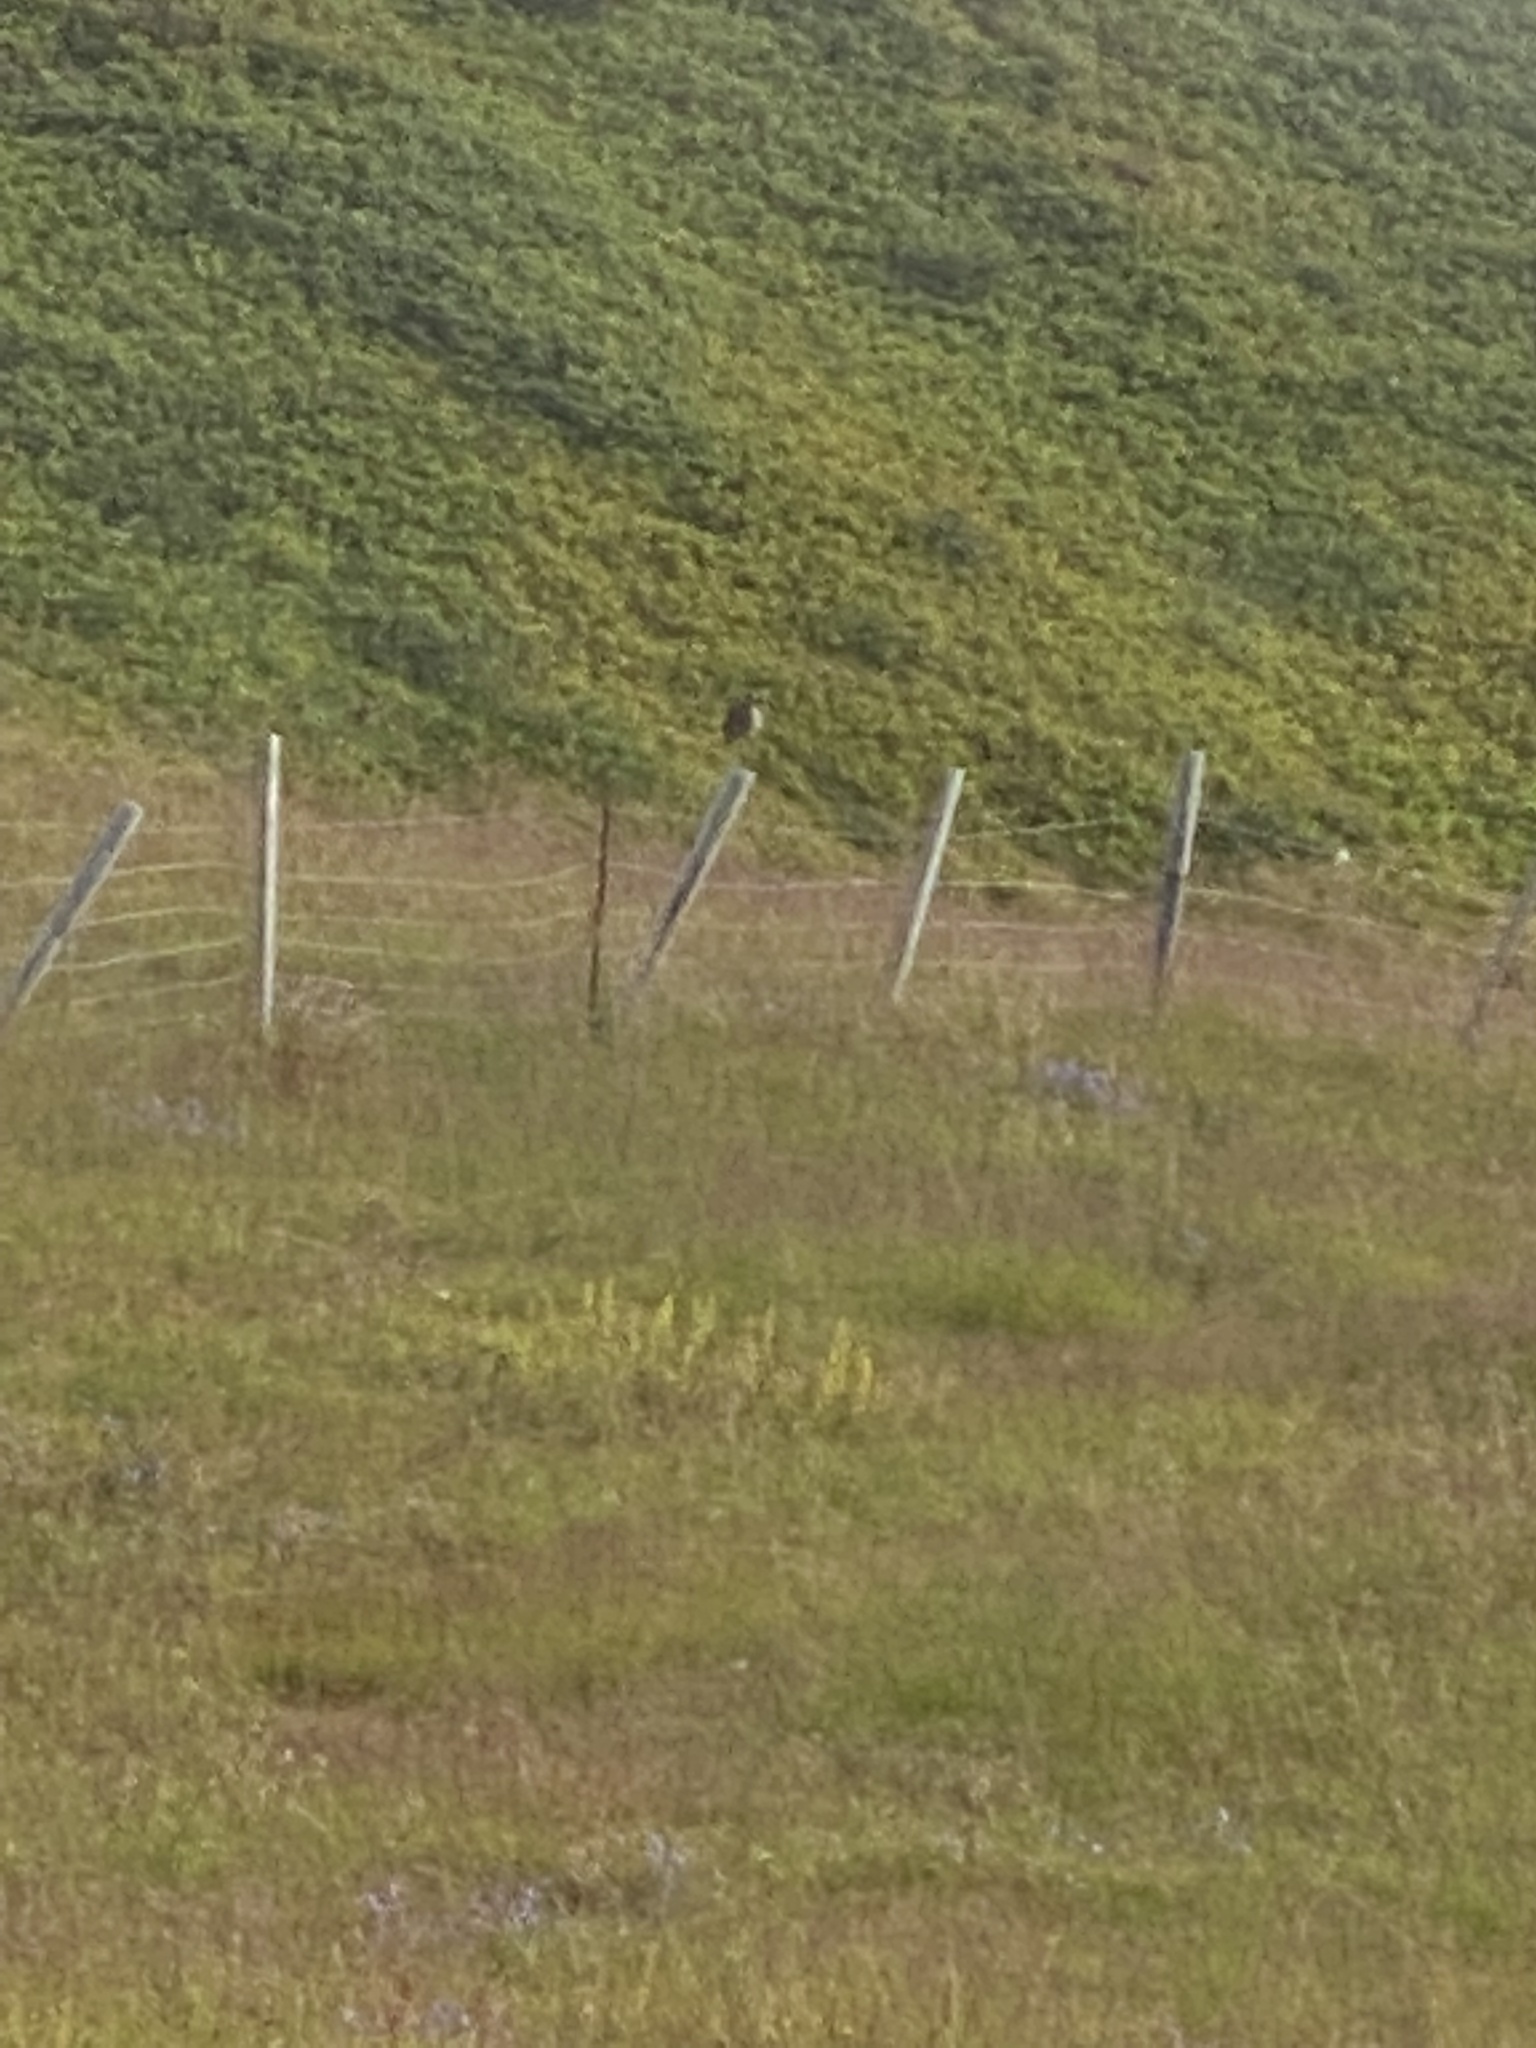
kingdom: Animalia
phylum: Chordata
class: Aves
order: Charadriiformes
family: Scolopacidae
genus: Numenius
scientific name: Numenius phaeopus
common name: Whimbrel
